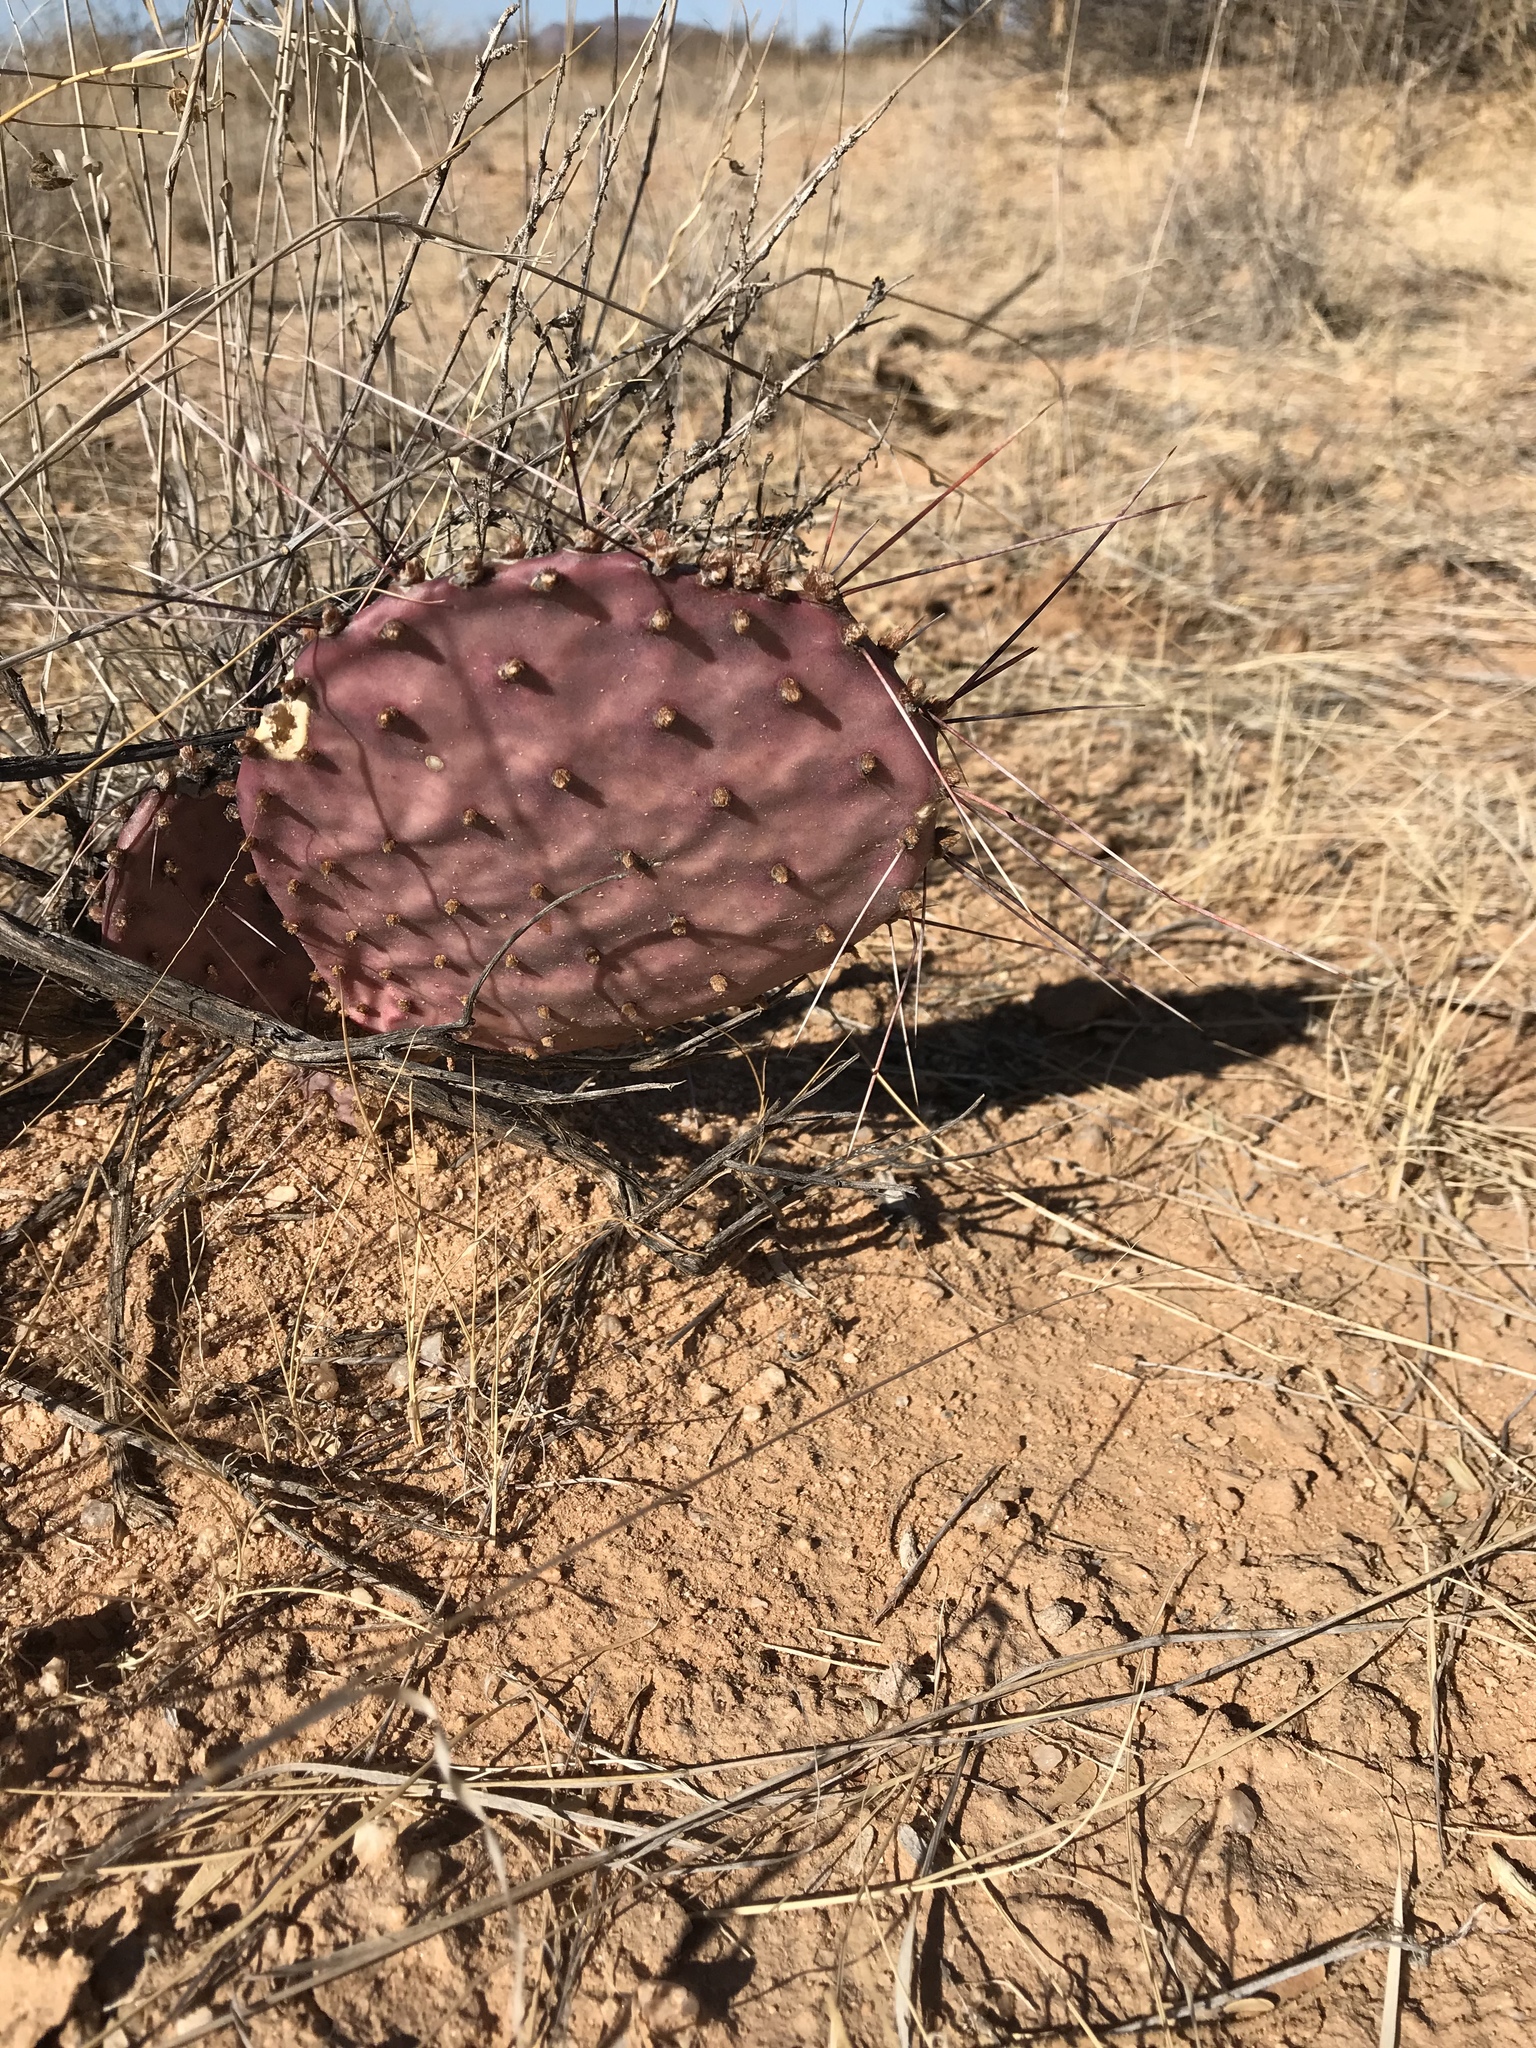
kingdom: Plantae
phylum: Tracheophyta
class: Magnoliopsida
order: Caryophyllales
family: Cactaceae
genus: Opuntia
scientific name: Opuntia macrocentra
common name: Purple prickly-pear
